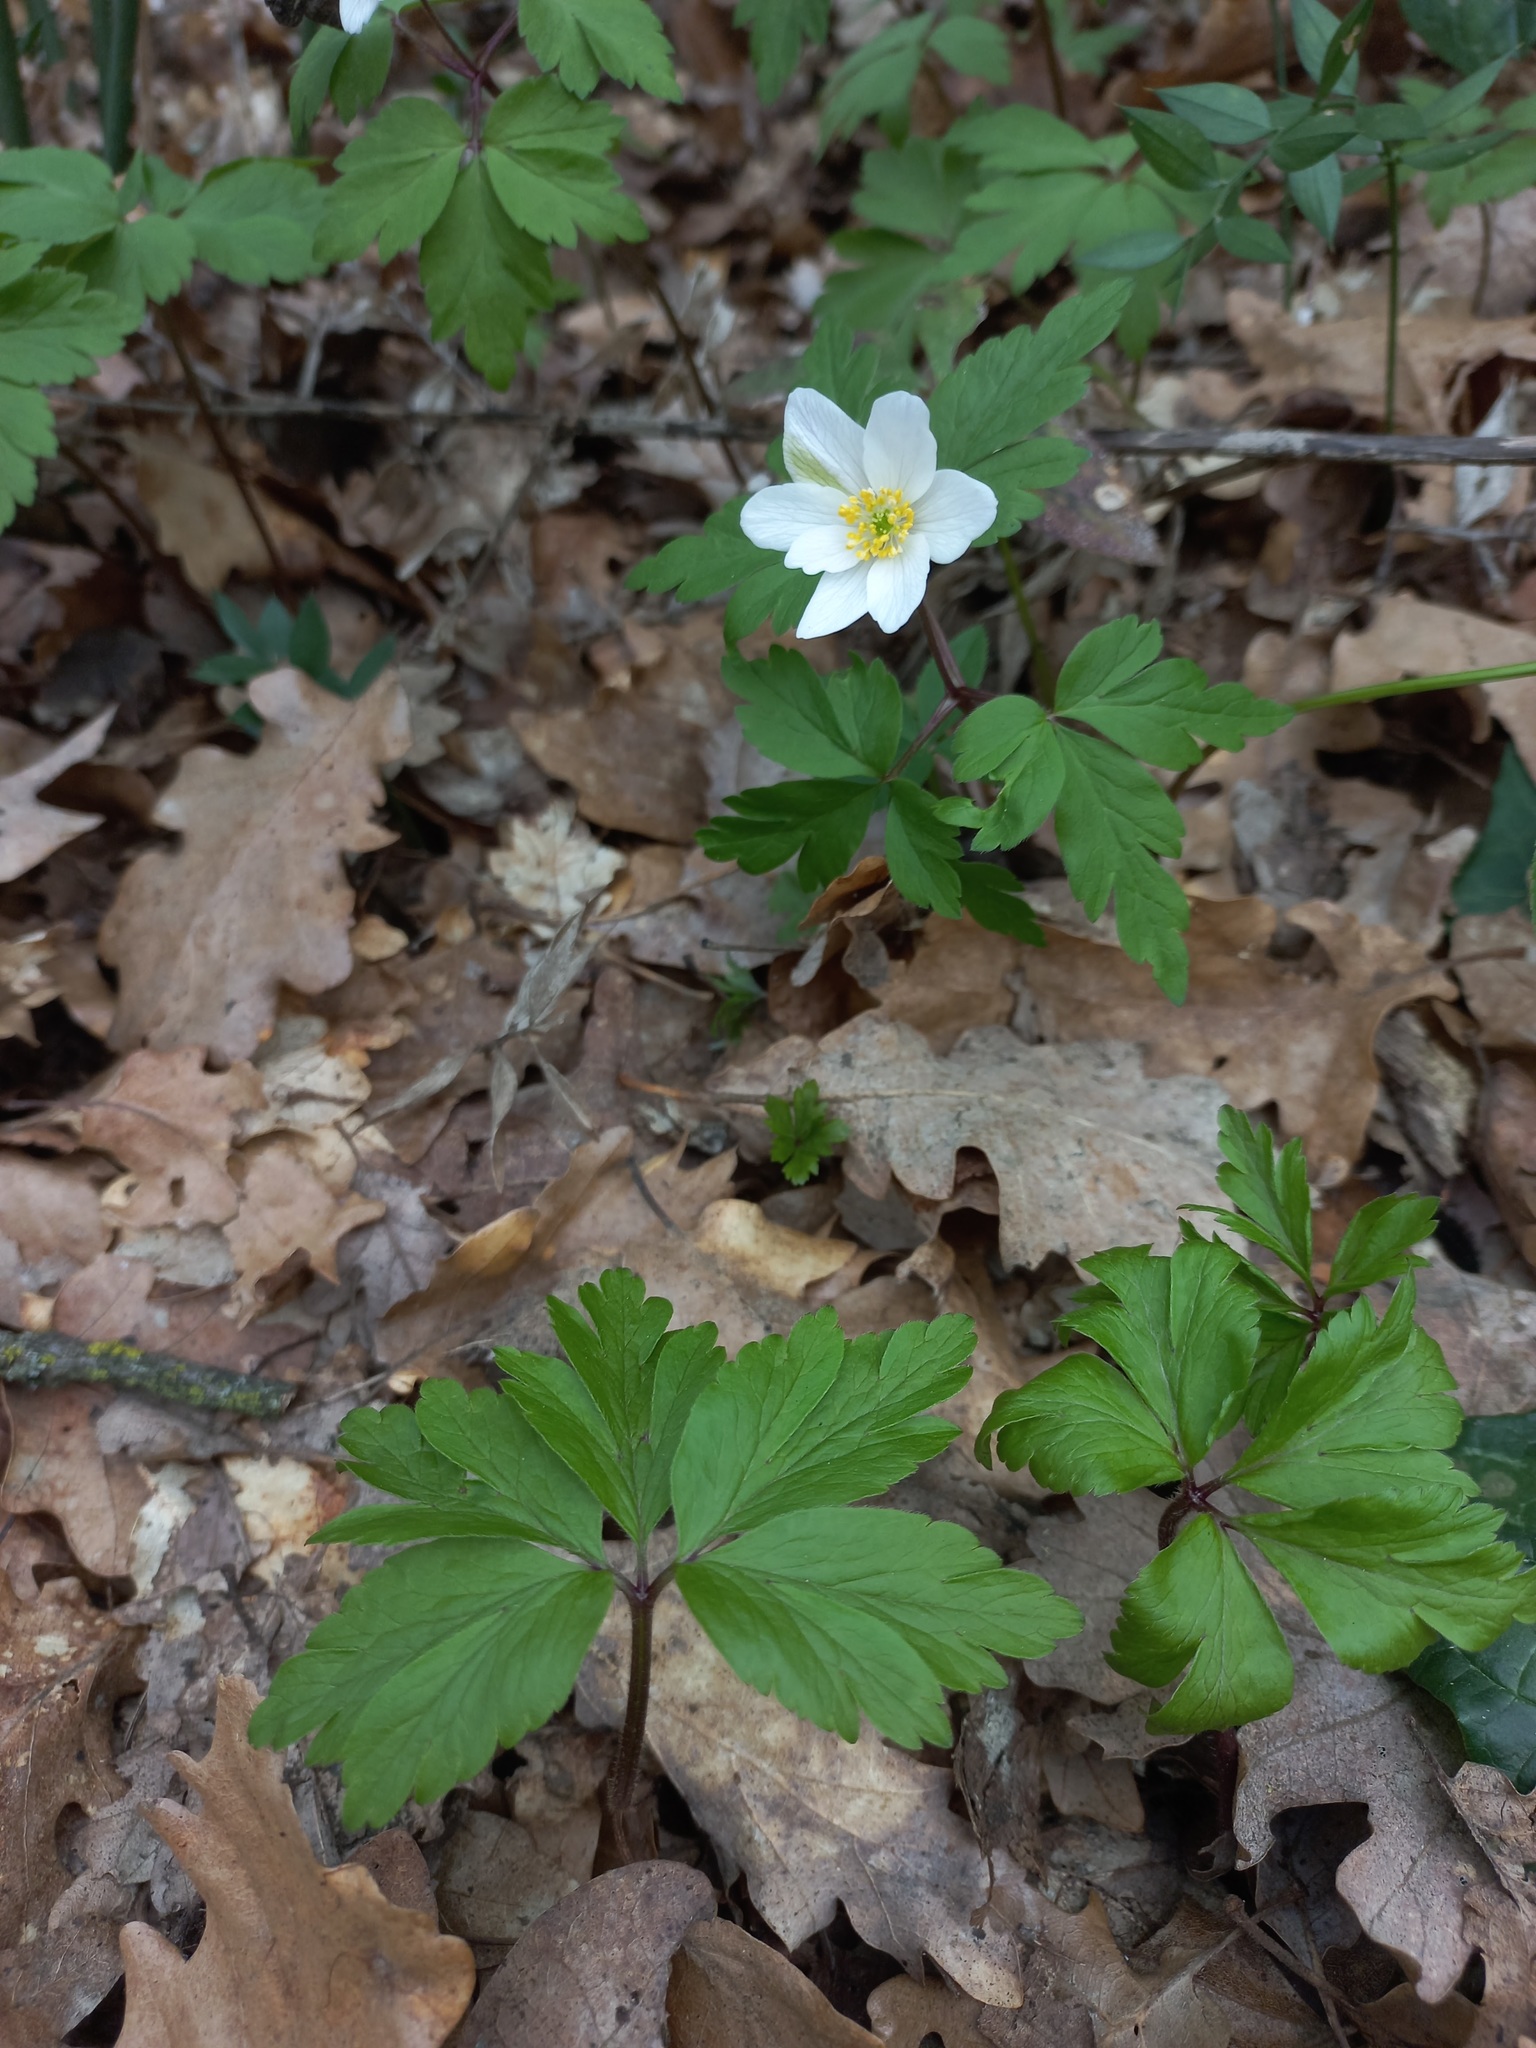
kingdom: Plantae
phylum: Tracheophyta
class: Magnoliopsida
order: Ranunculales
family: Ranunculaceae
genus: Anemone
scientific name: Anemone nemorosa
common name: Wood anemone
